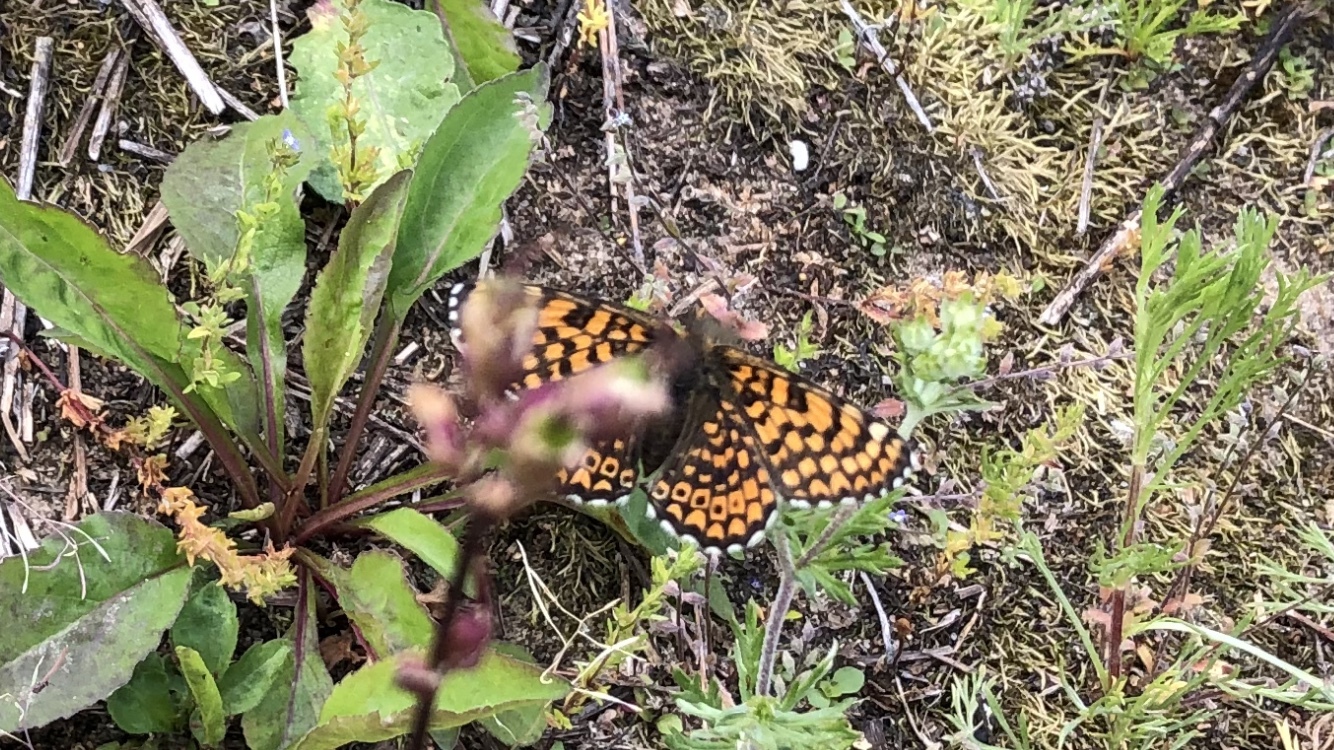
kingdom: Animalia
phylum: Arthropoda
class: Insecta
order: Lepidoptera
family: Nymphalidae
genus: Melitaea
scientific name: Melitaea cinxia
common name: Glanville fritillary
